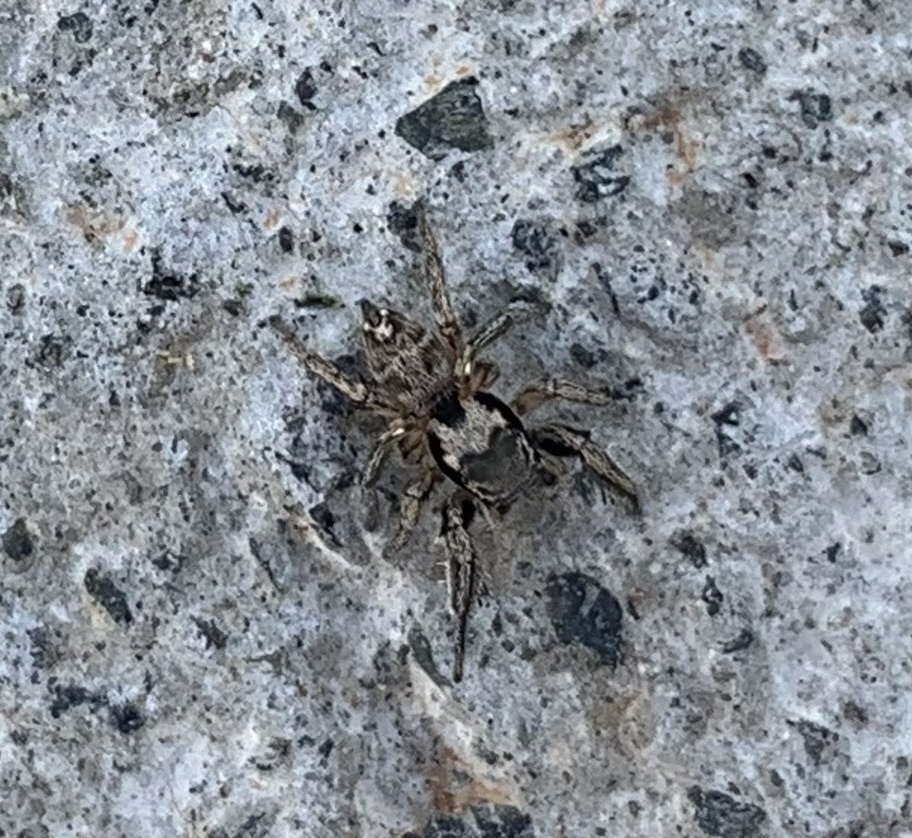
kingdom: Animalia
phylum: Arthropoda
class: Arachnida
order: Araneae
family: Salticidae
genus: Habronattus
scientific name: Habronattus coecatus
